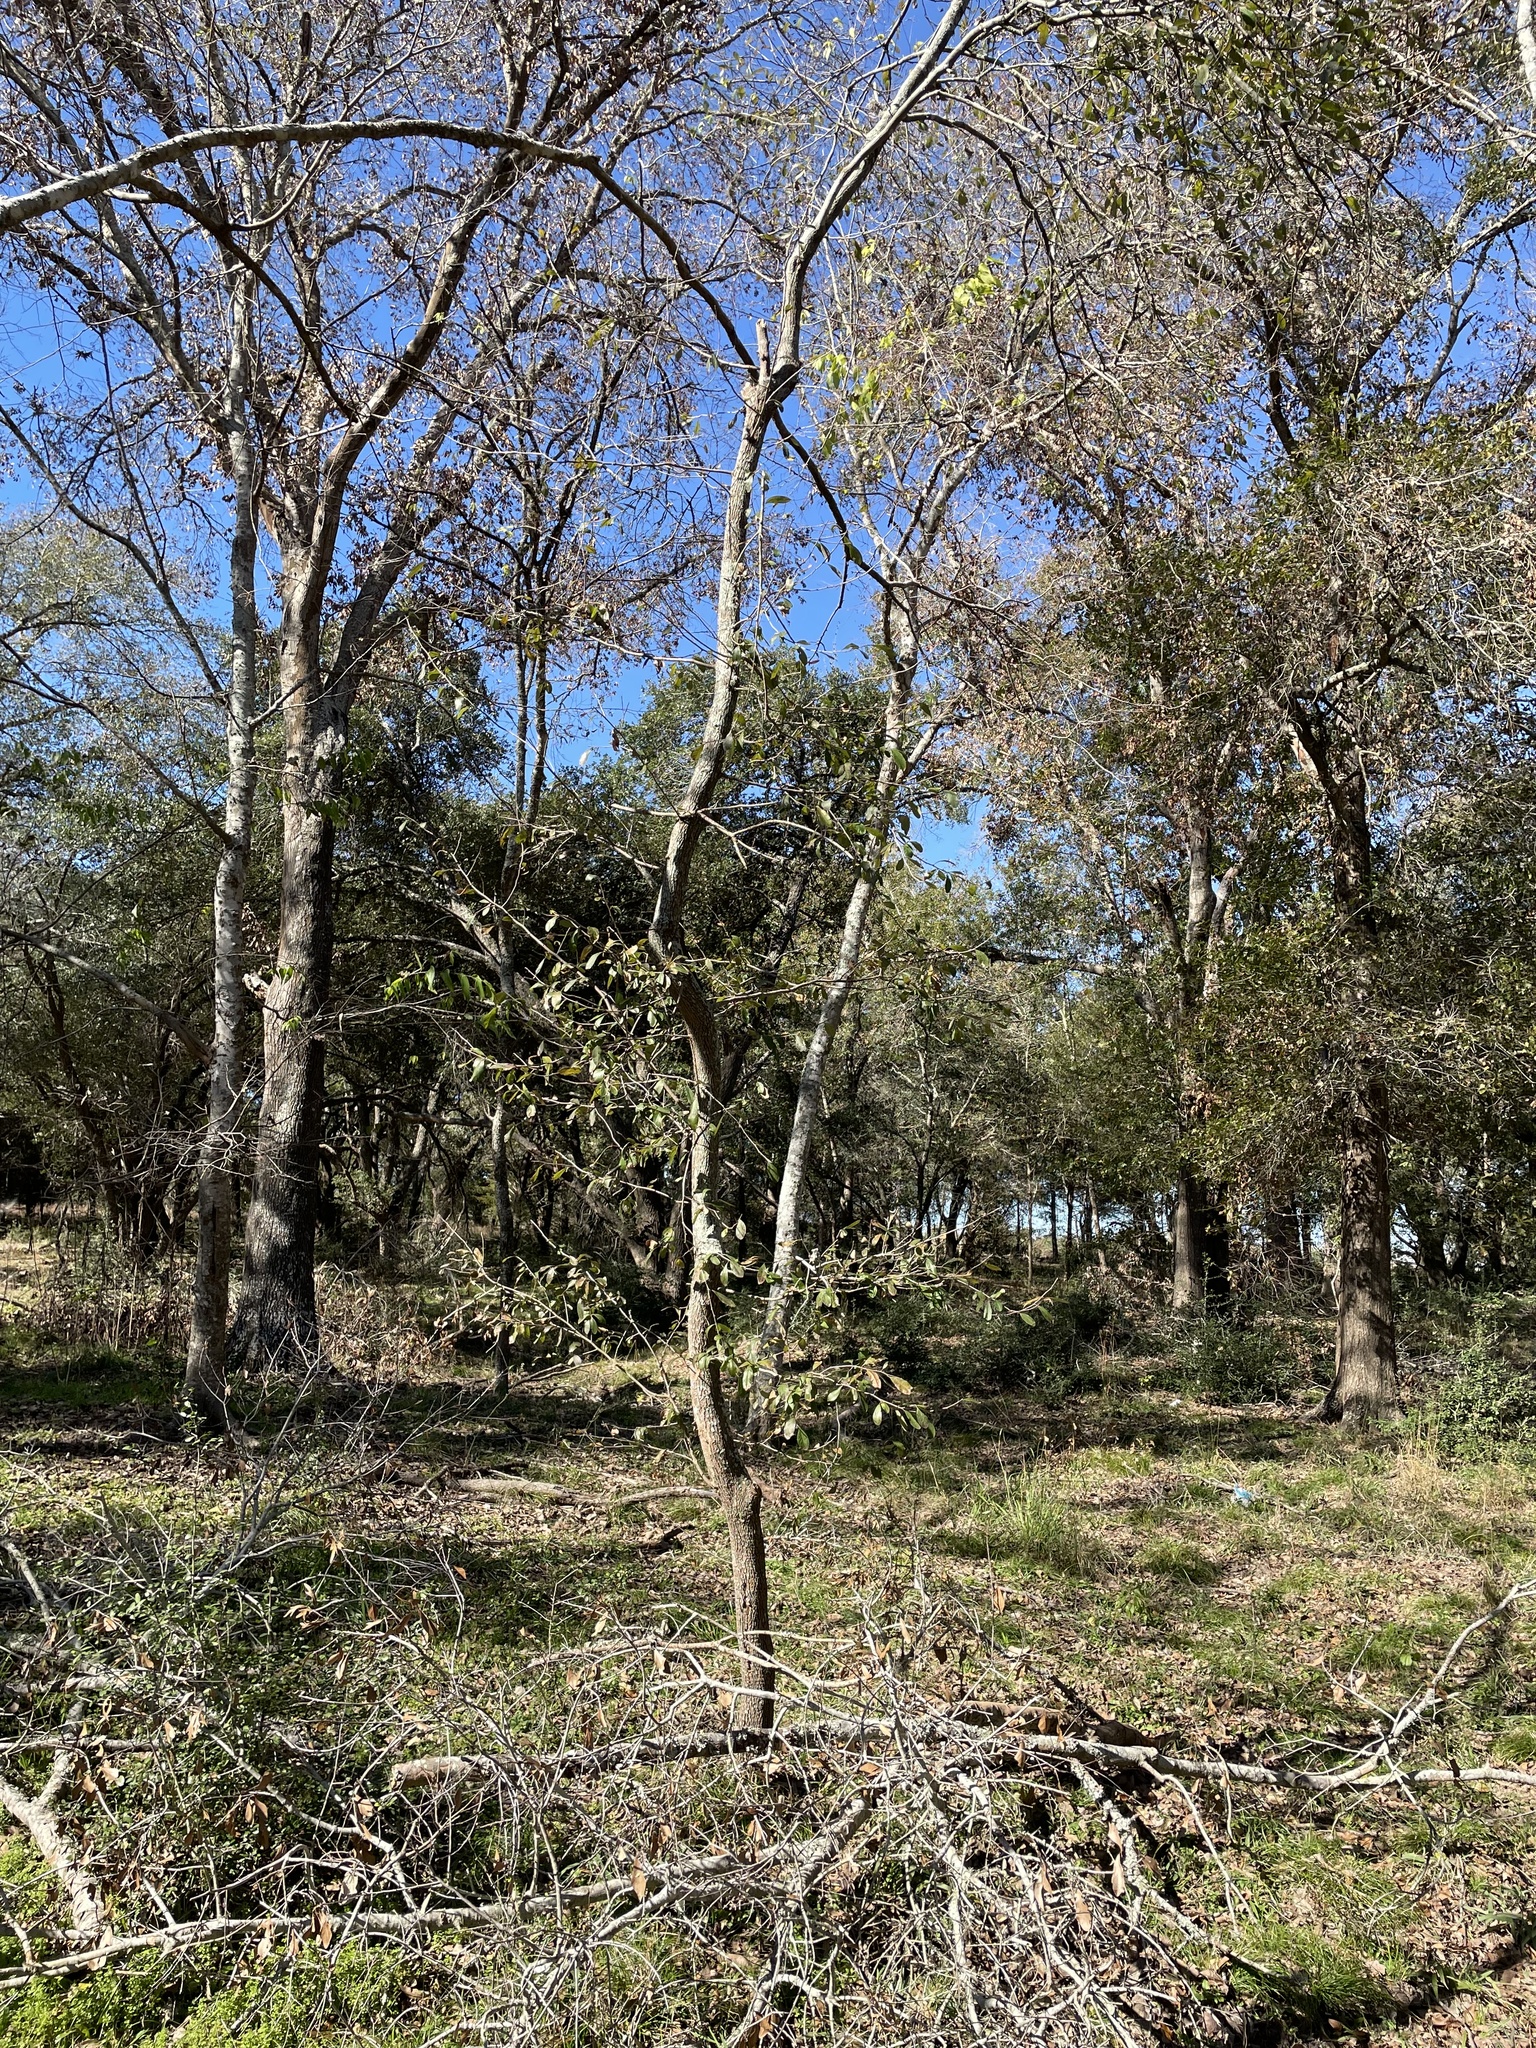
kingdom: Plantae
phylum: Tracheophyta
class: Magnoliopsida
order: Ericales
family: Sapotaceae
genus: Sideroxylon
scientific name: Sideroxylon lanuginosum
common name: Chittamwood
